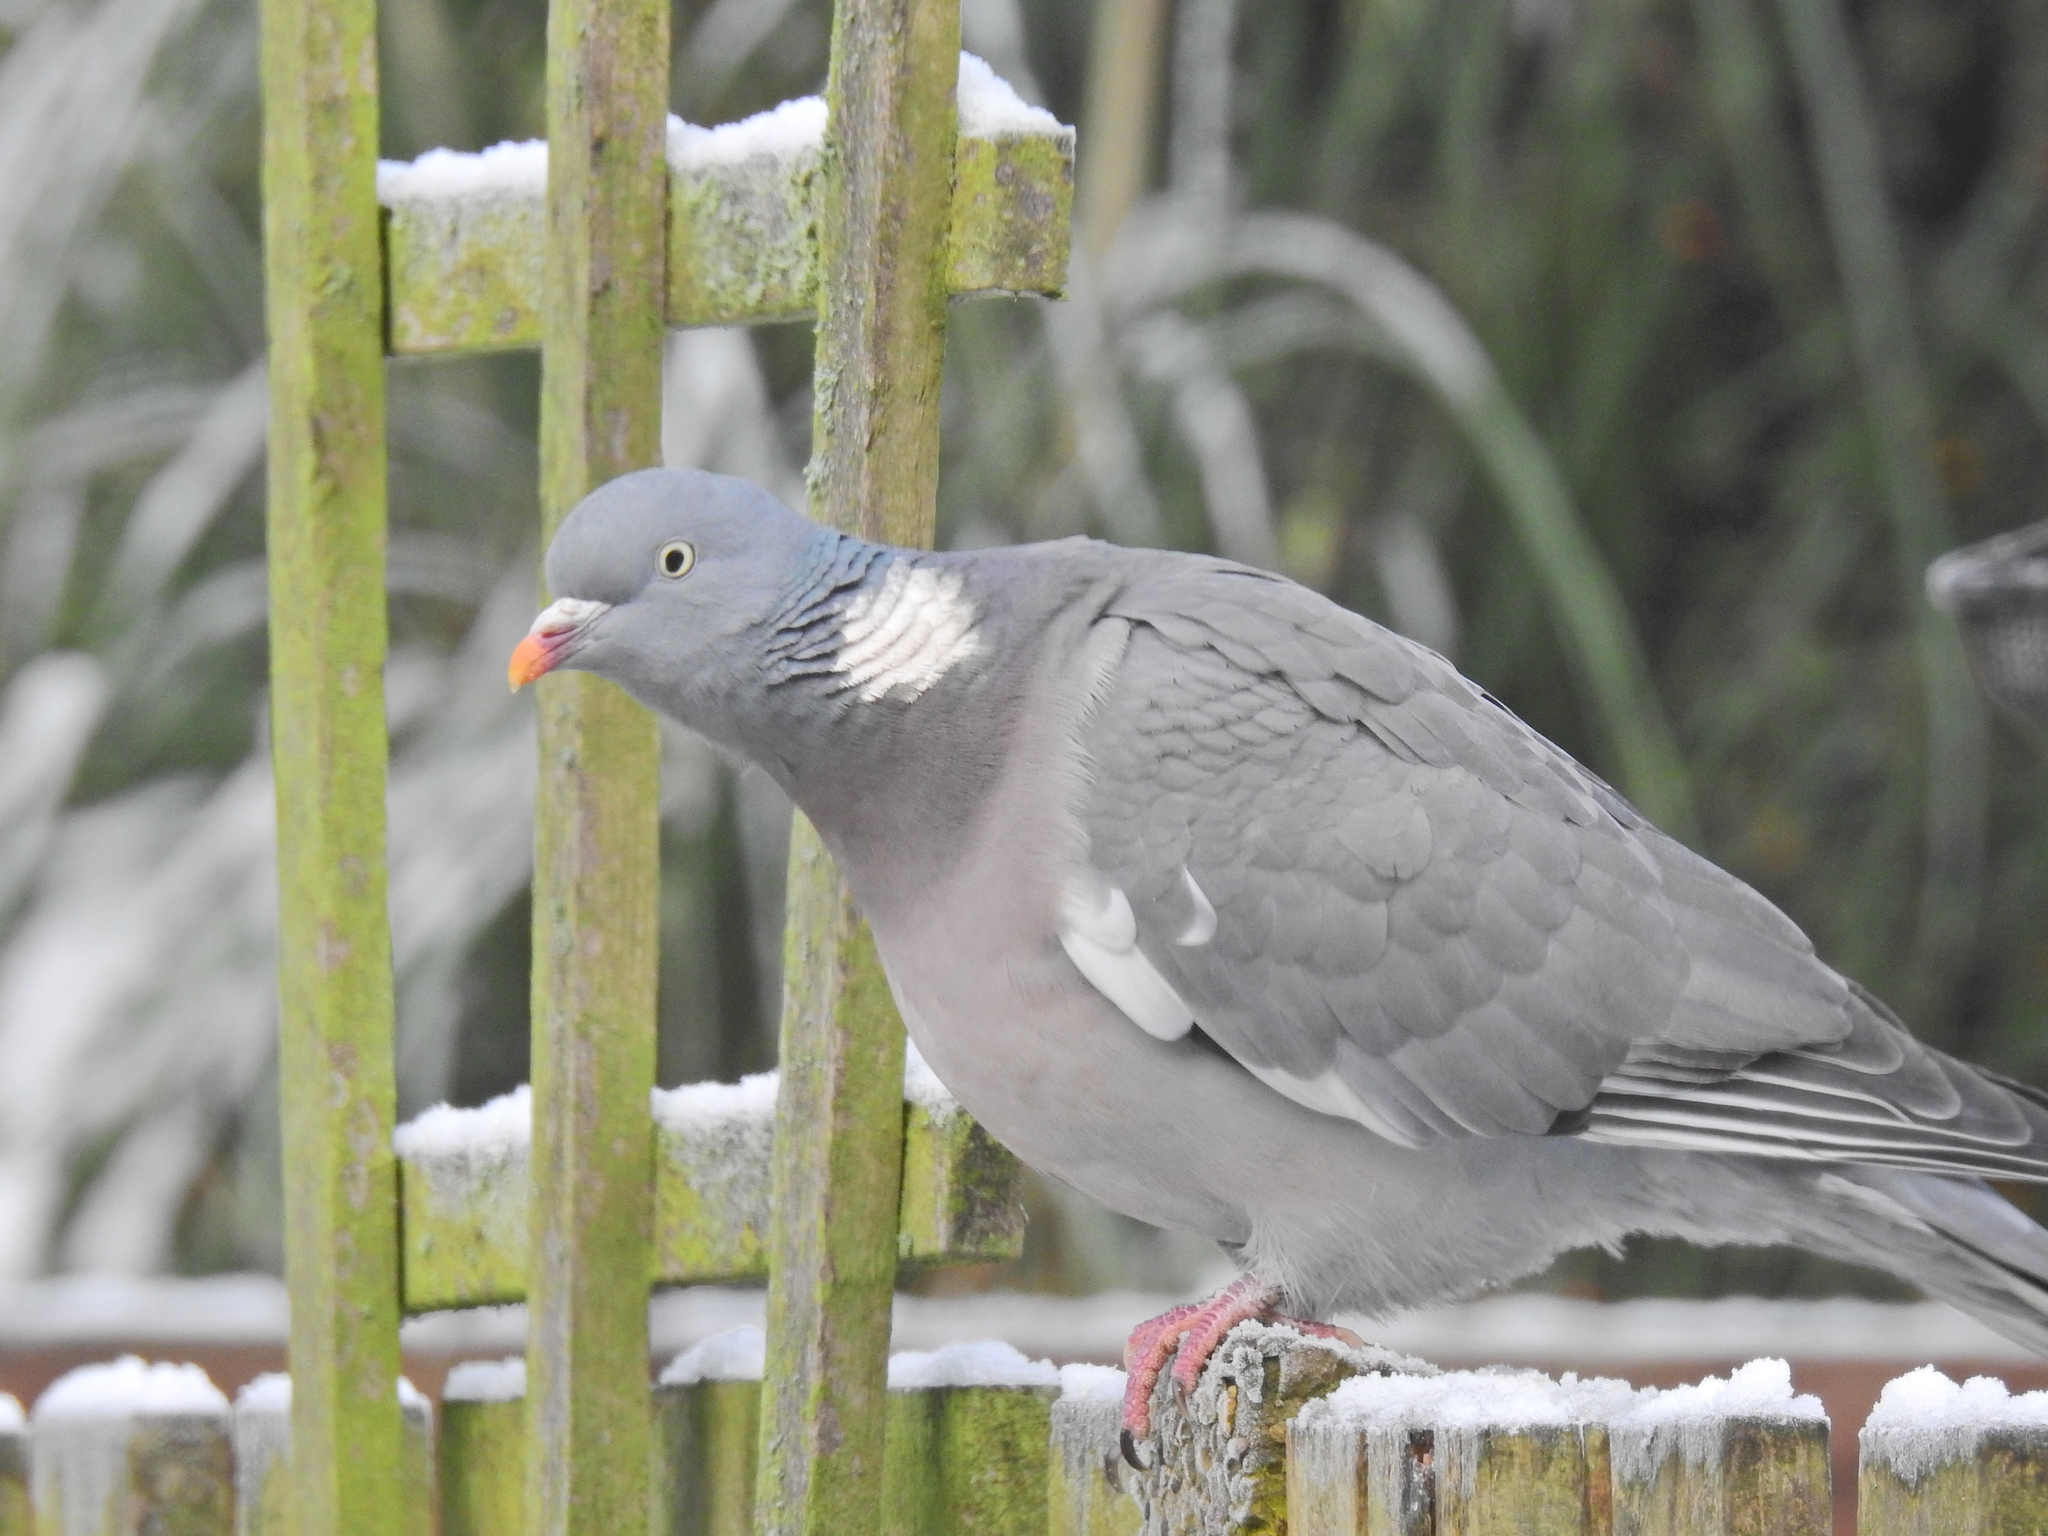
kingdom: Animalia
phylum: Chordata
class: Aves
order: Columbiformes
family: Columbidae
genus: Columba
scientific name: Columba palumbus
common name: Common wood pigeon
